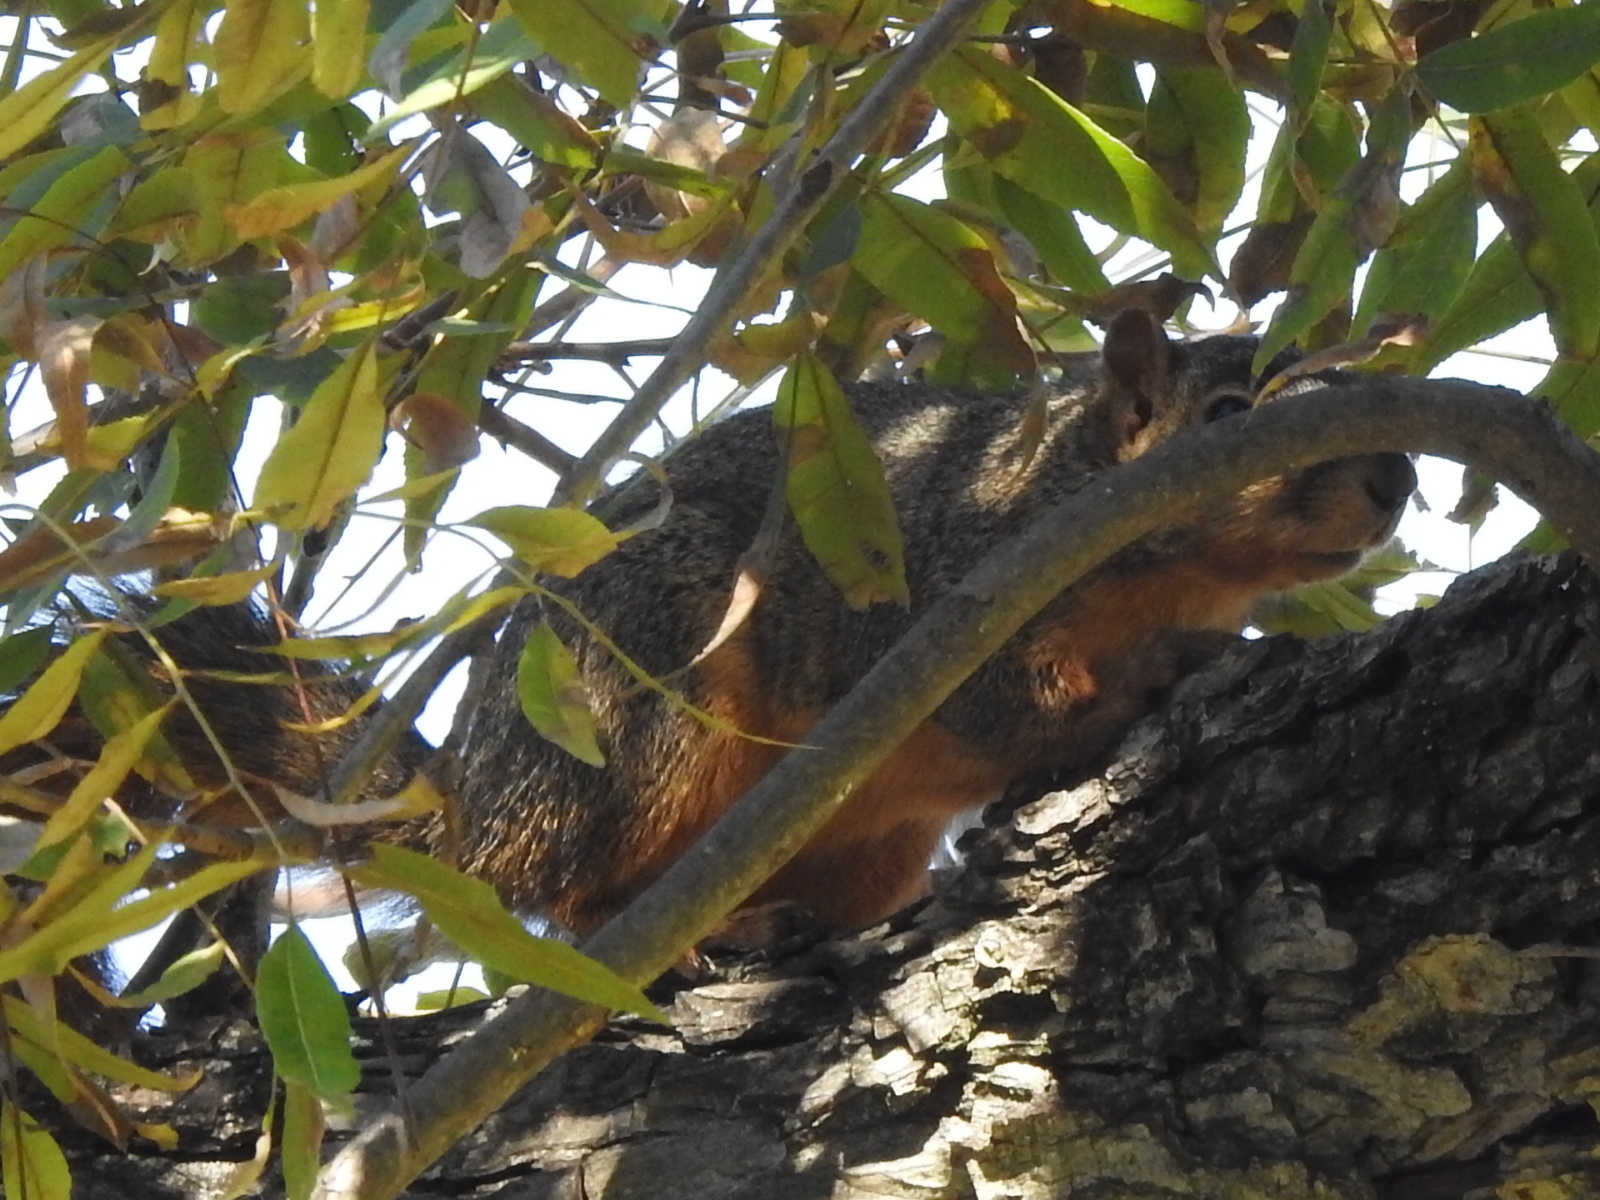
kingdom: Animalia
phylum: Chordata
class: Mammalia
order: Rodentia
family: Sciuridae
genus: Sciurus
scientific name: Sciurus niger
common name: Fox squirrel
